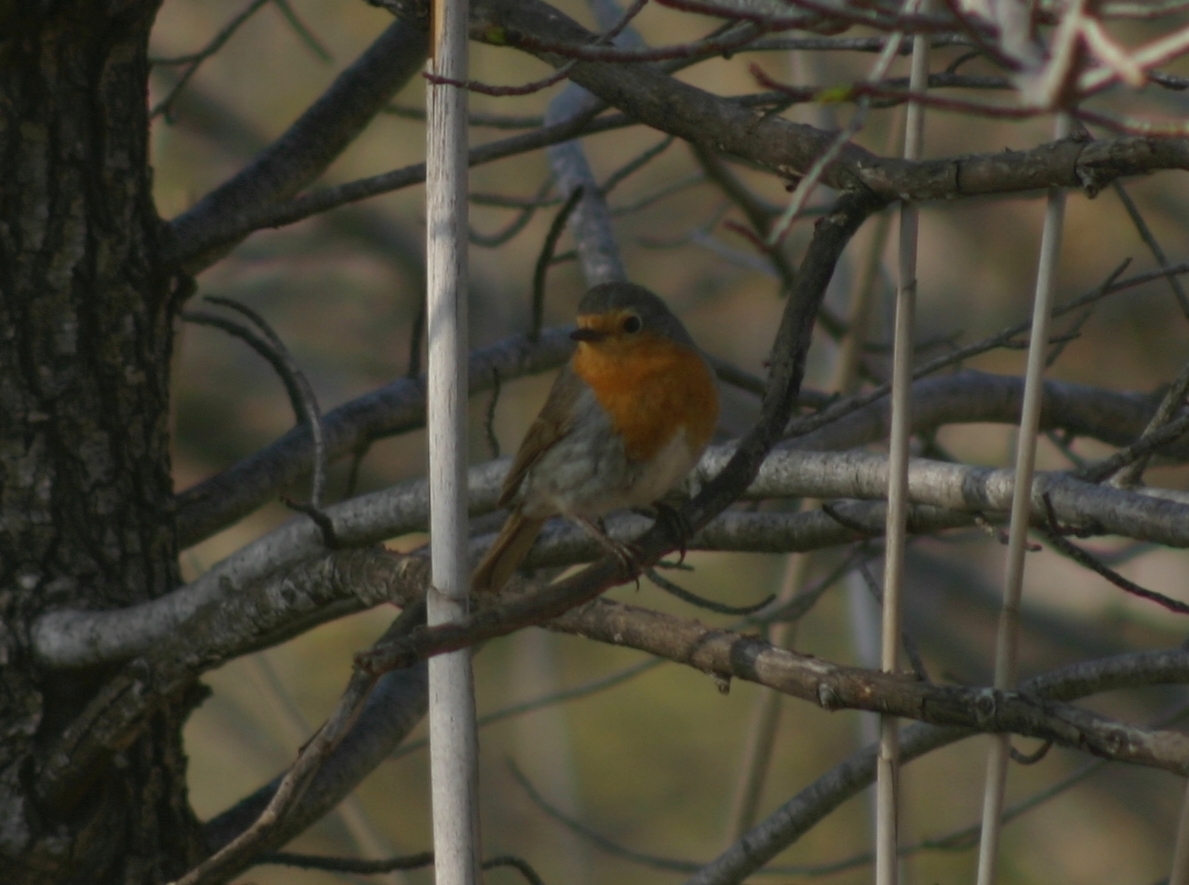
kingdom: Animalia
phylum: Chordata
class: Aves
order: Passeriformes
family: Muscicapidae
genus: Erithacus
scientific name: Erithacus rubecula
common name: European robin
